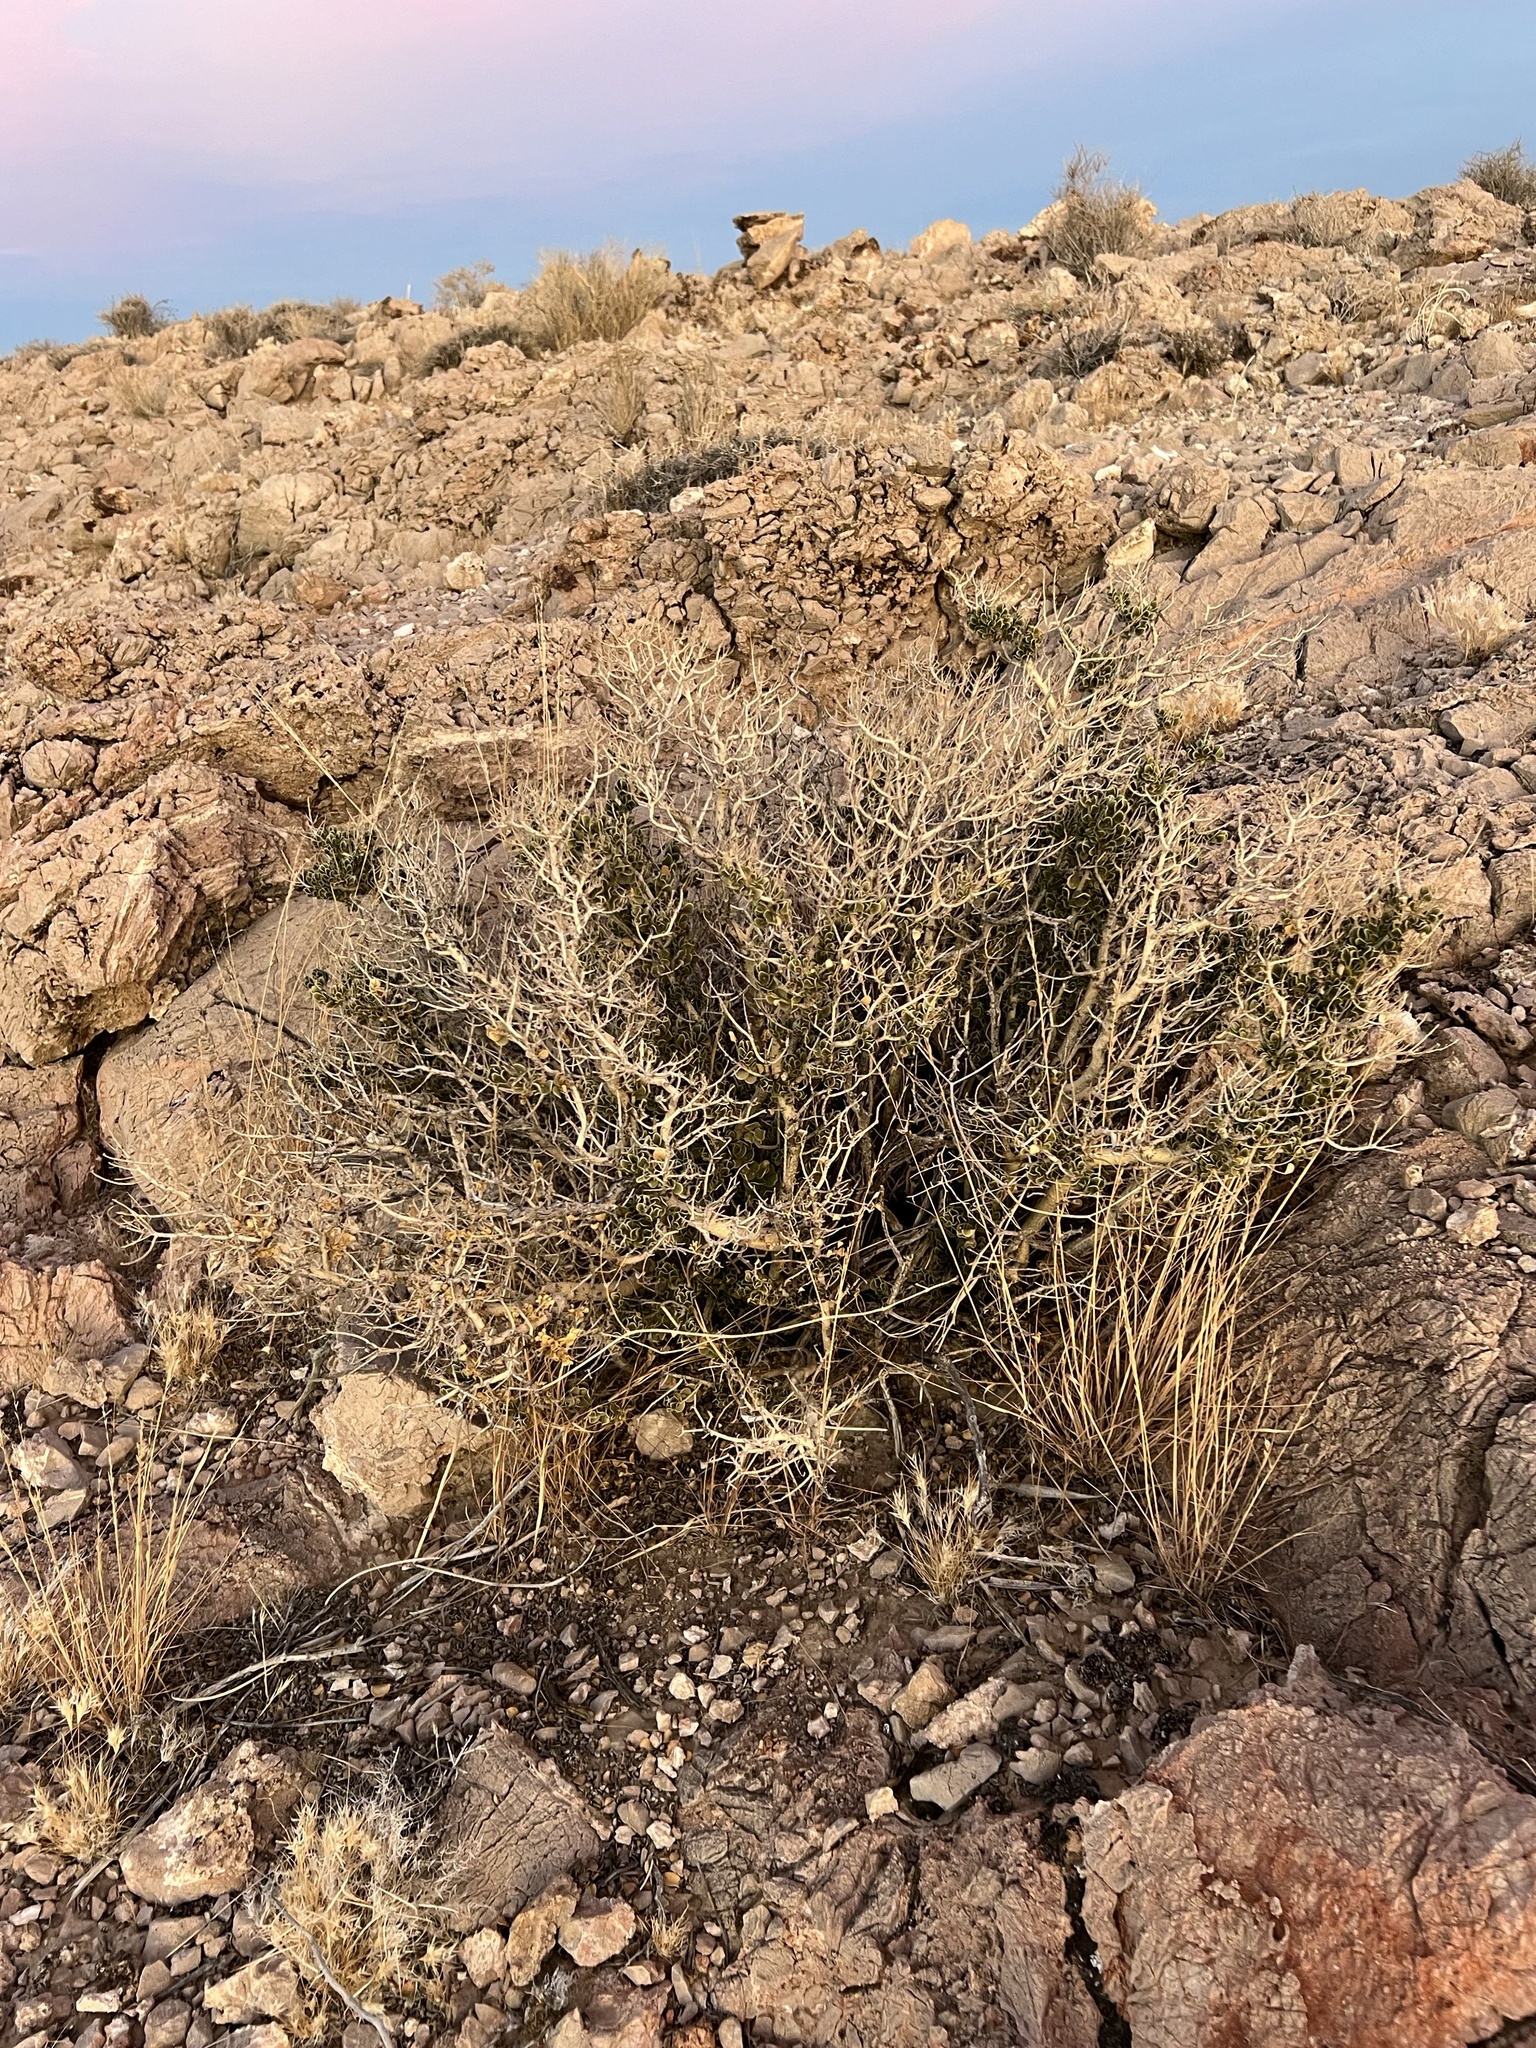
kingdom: Plantae
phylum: Tracheophyta
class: Magnoliopsida
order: Celastrales
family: Celastraceae
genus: Mortonia
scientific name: Mortonia utahensis
